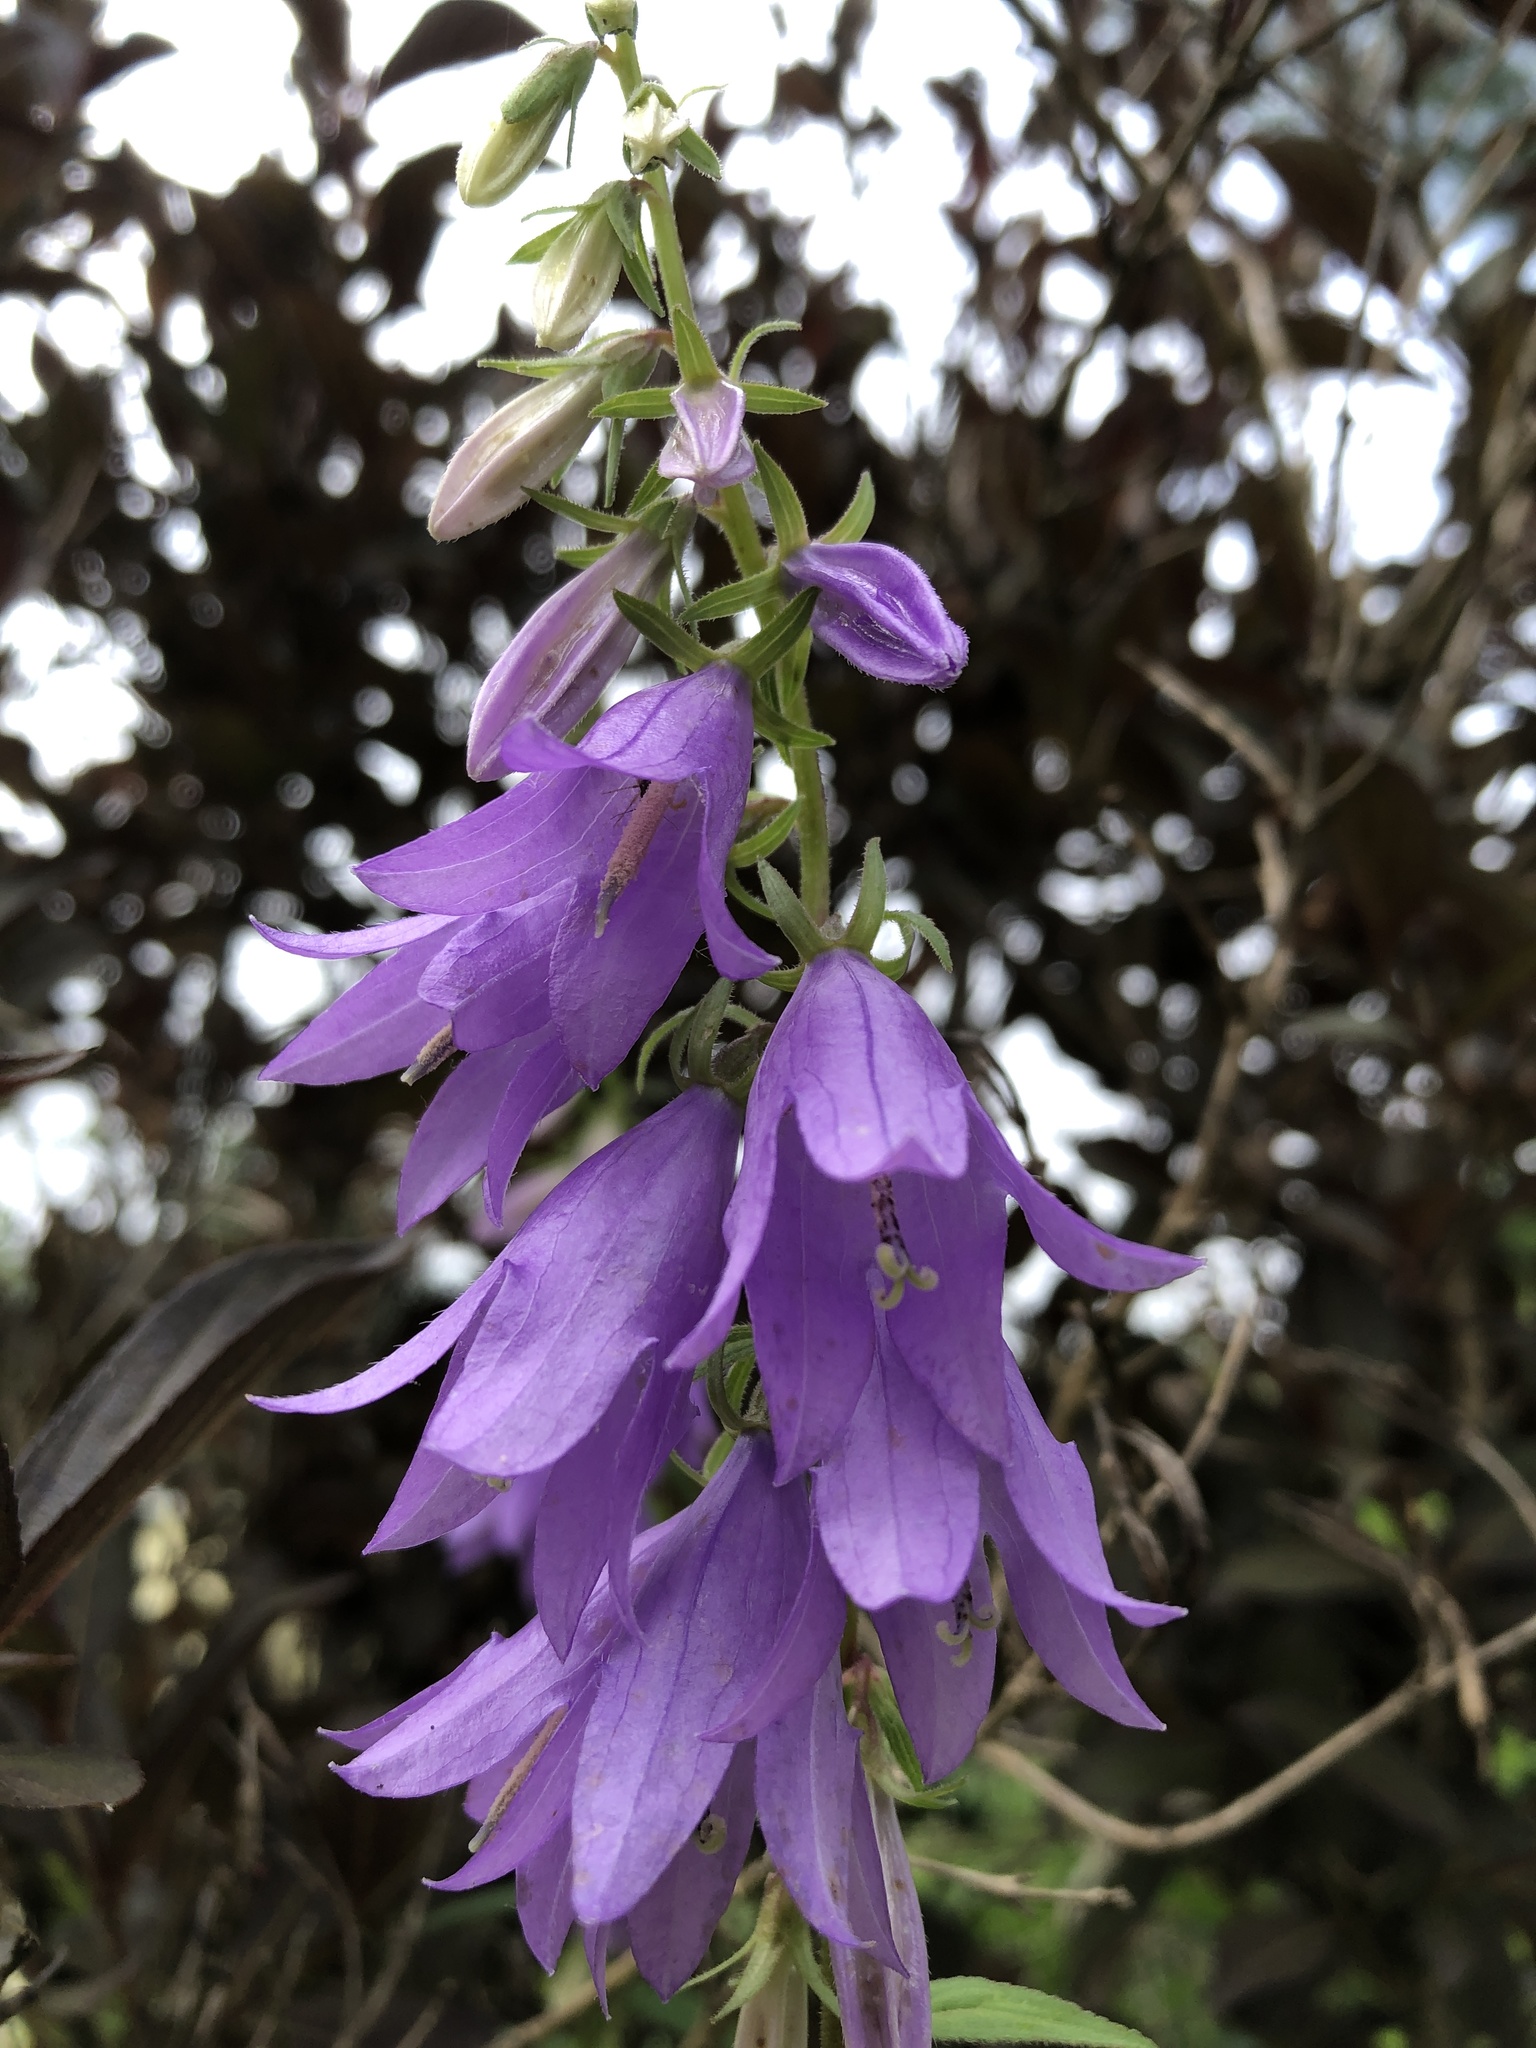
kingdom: Plantae
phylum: Tracheophyta
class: Magnoliopsida
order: Asterales
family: Campanulaceae
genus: Campanula
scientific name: Campanula rapunculoides
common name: Creeping bellflower
